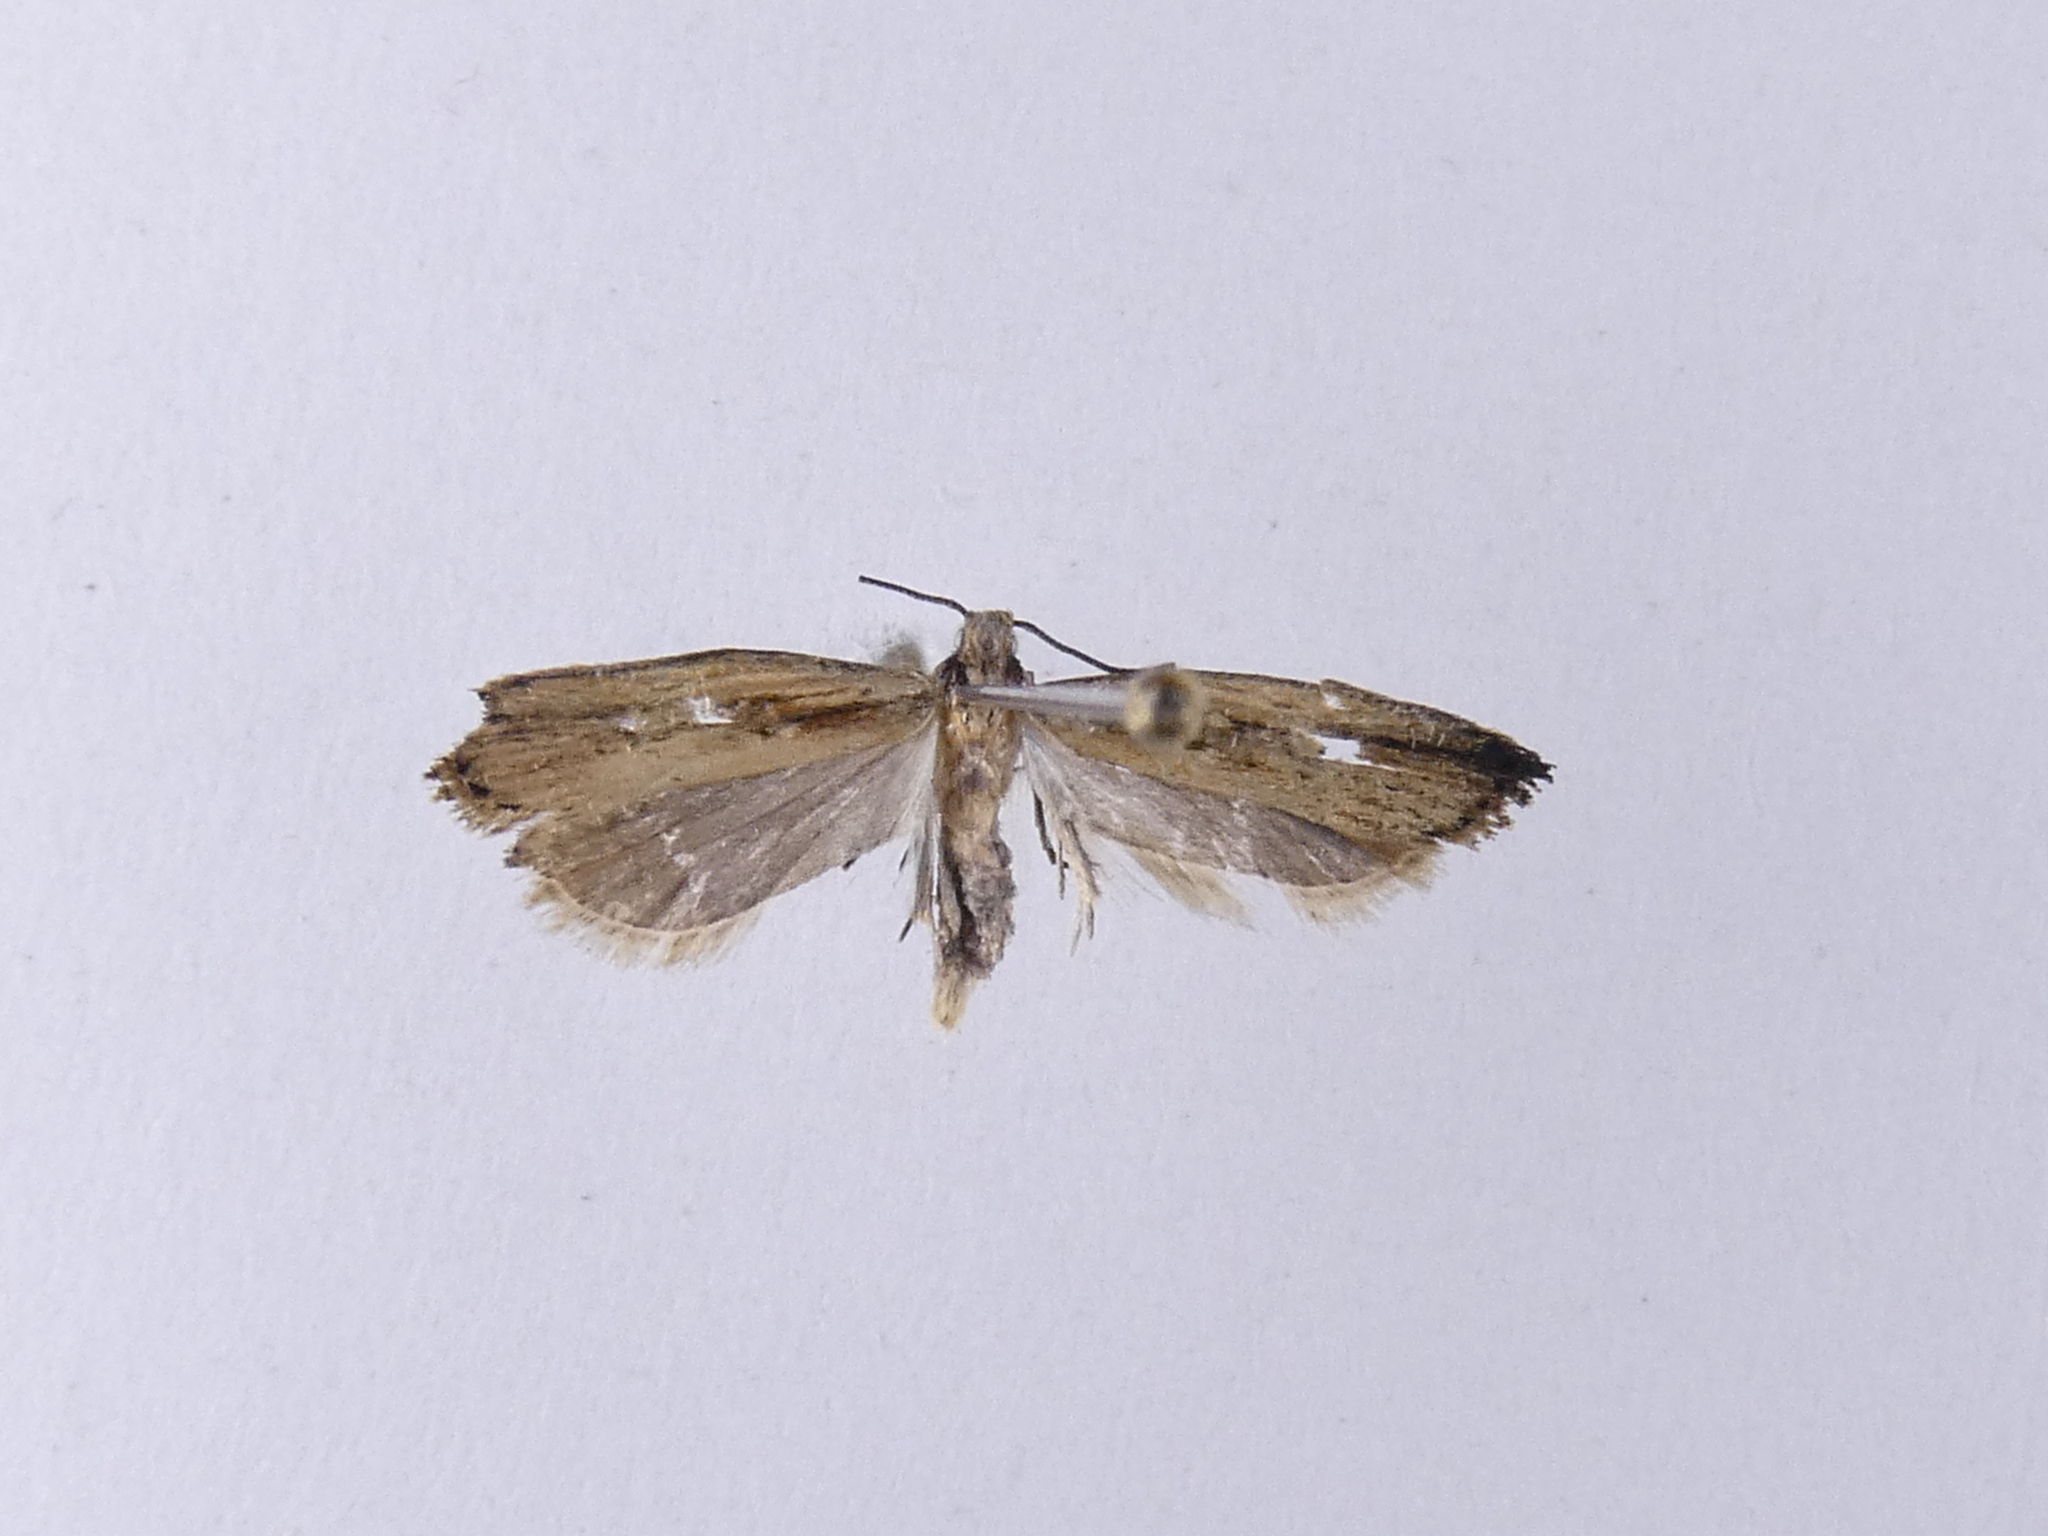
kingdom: Animalia
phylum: Arthropoda
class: Insecta
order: Lepidoptera
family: Gelechiidae
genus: Helcystogramma
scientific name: Helcystogramma phryganitis
